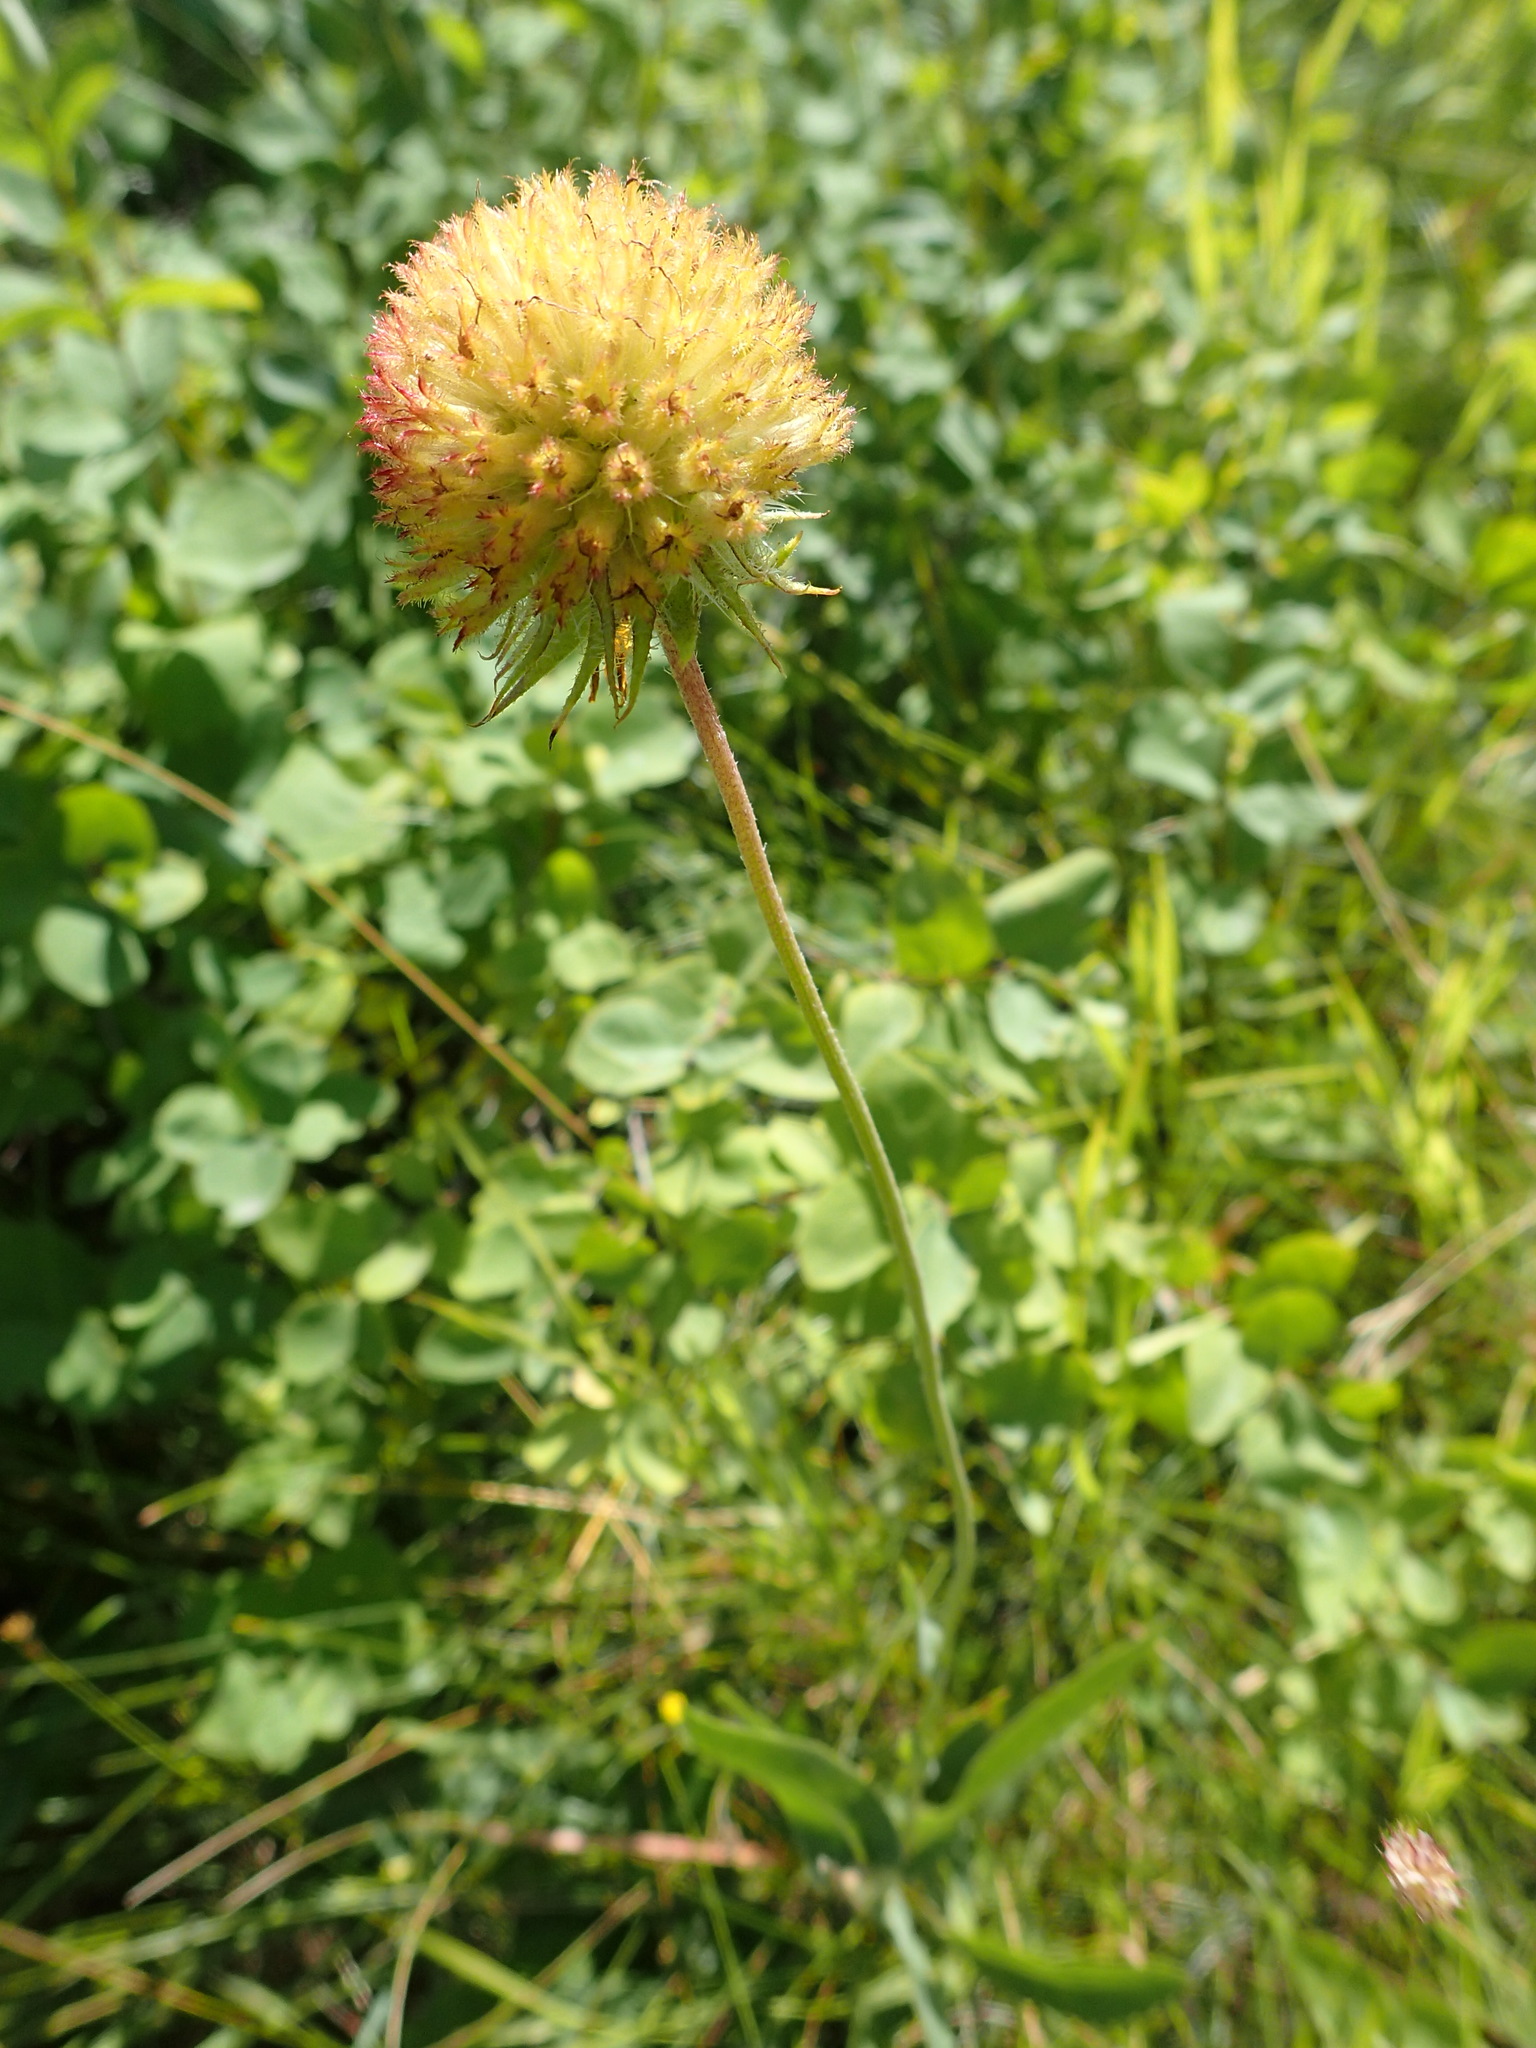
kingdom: Plantae
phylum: Tracheophyta
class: Magnoliopsida
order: Asterales
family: Asteraceae
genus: Gaillardia
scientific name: Gaillardia aristata
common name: Blanket-flower
